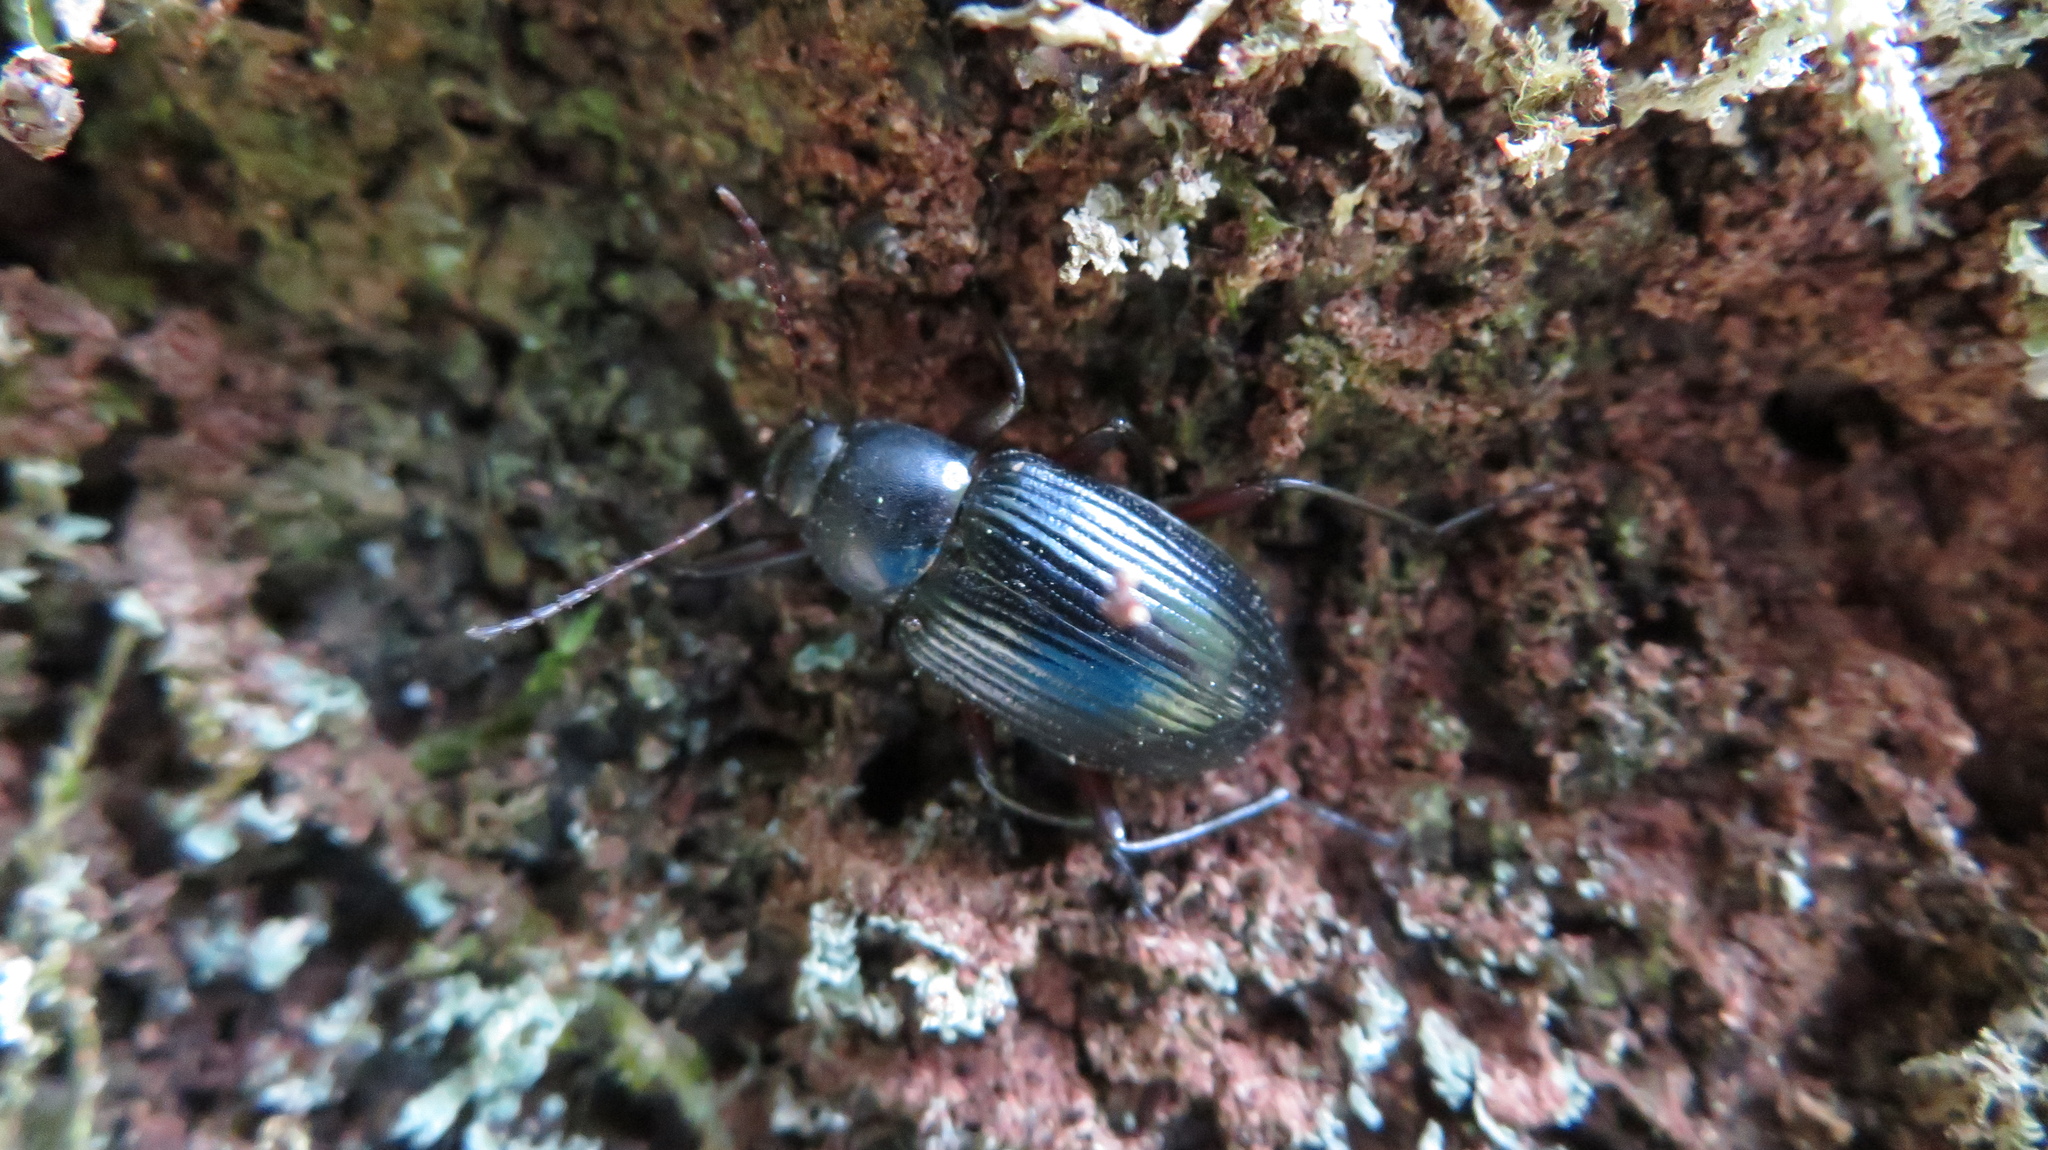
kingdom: Animalia
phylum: Arthropoda
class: Insecta
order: Coleoptera
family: Tenebrionidae
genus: Plesiophthalmus
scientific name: Plesiophthalmus
